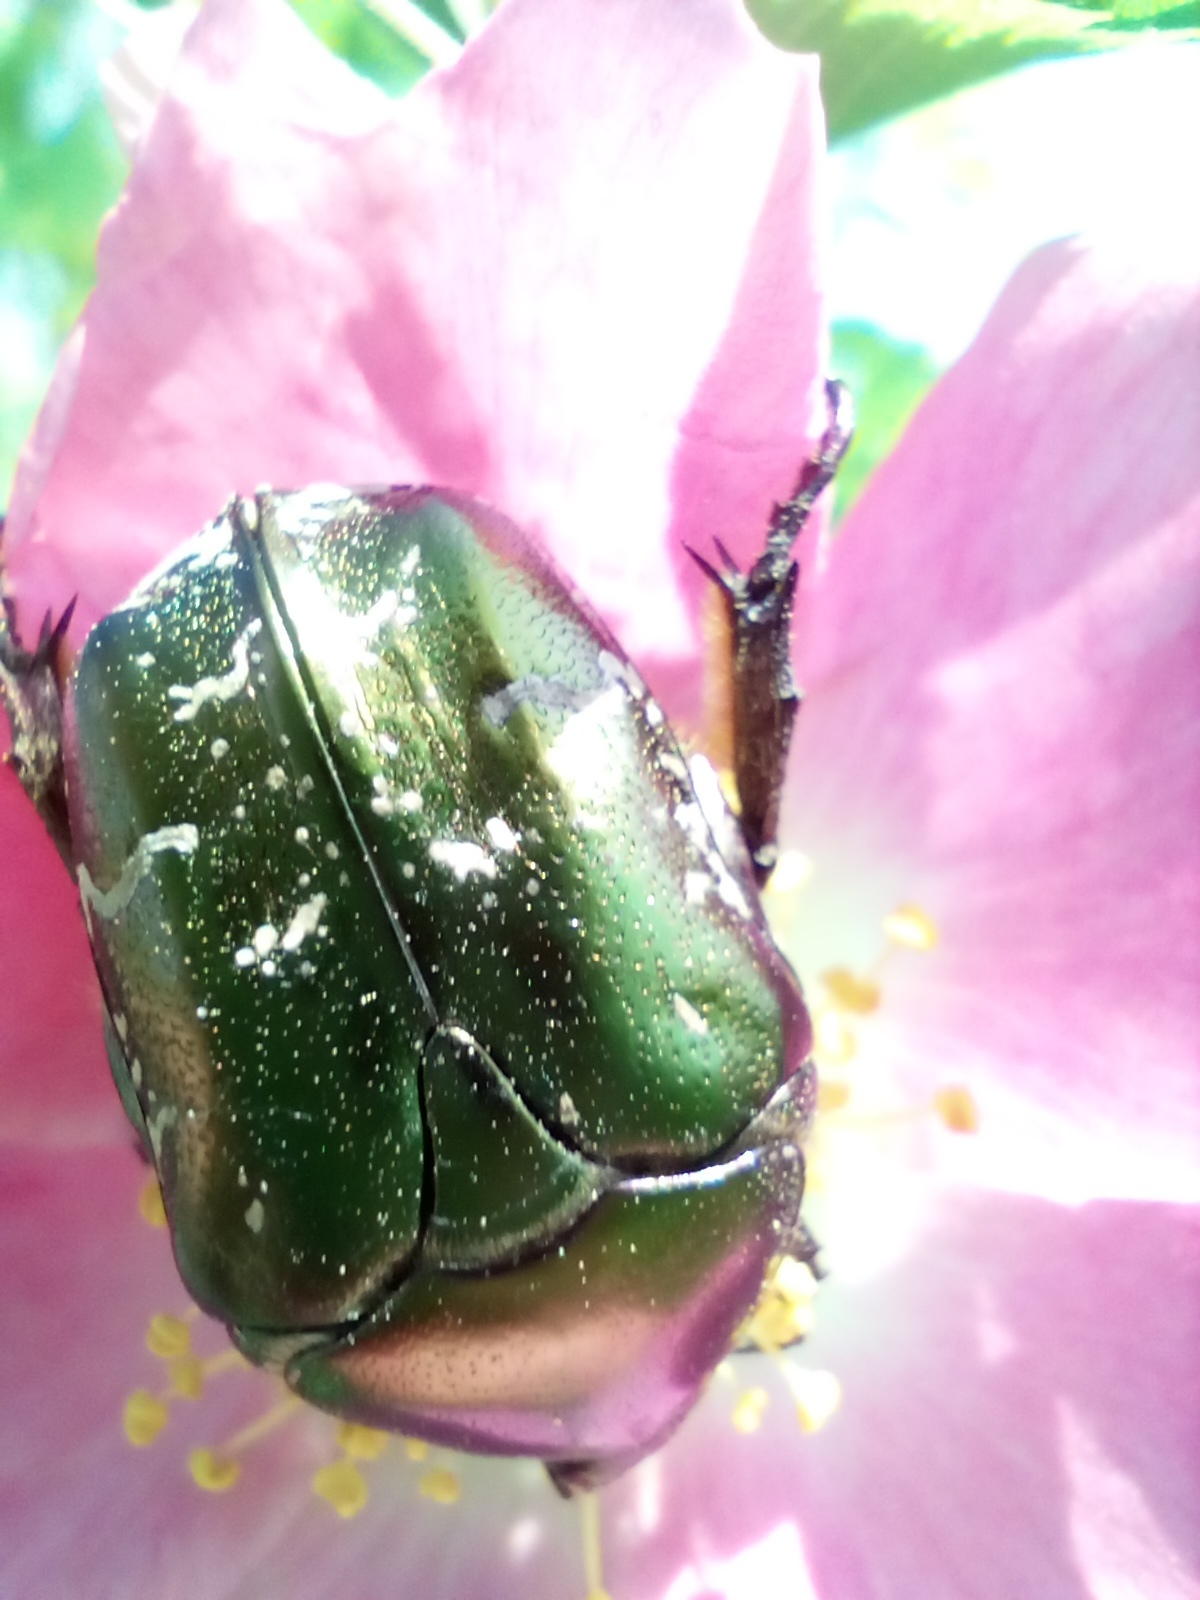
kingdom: Animalia
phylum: Arthropoda
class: Insecta
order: Coleoptera
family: Scarabaeidae
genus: Protaetia
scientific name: Protaetia cuprea
